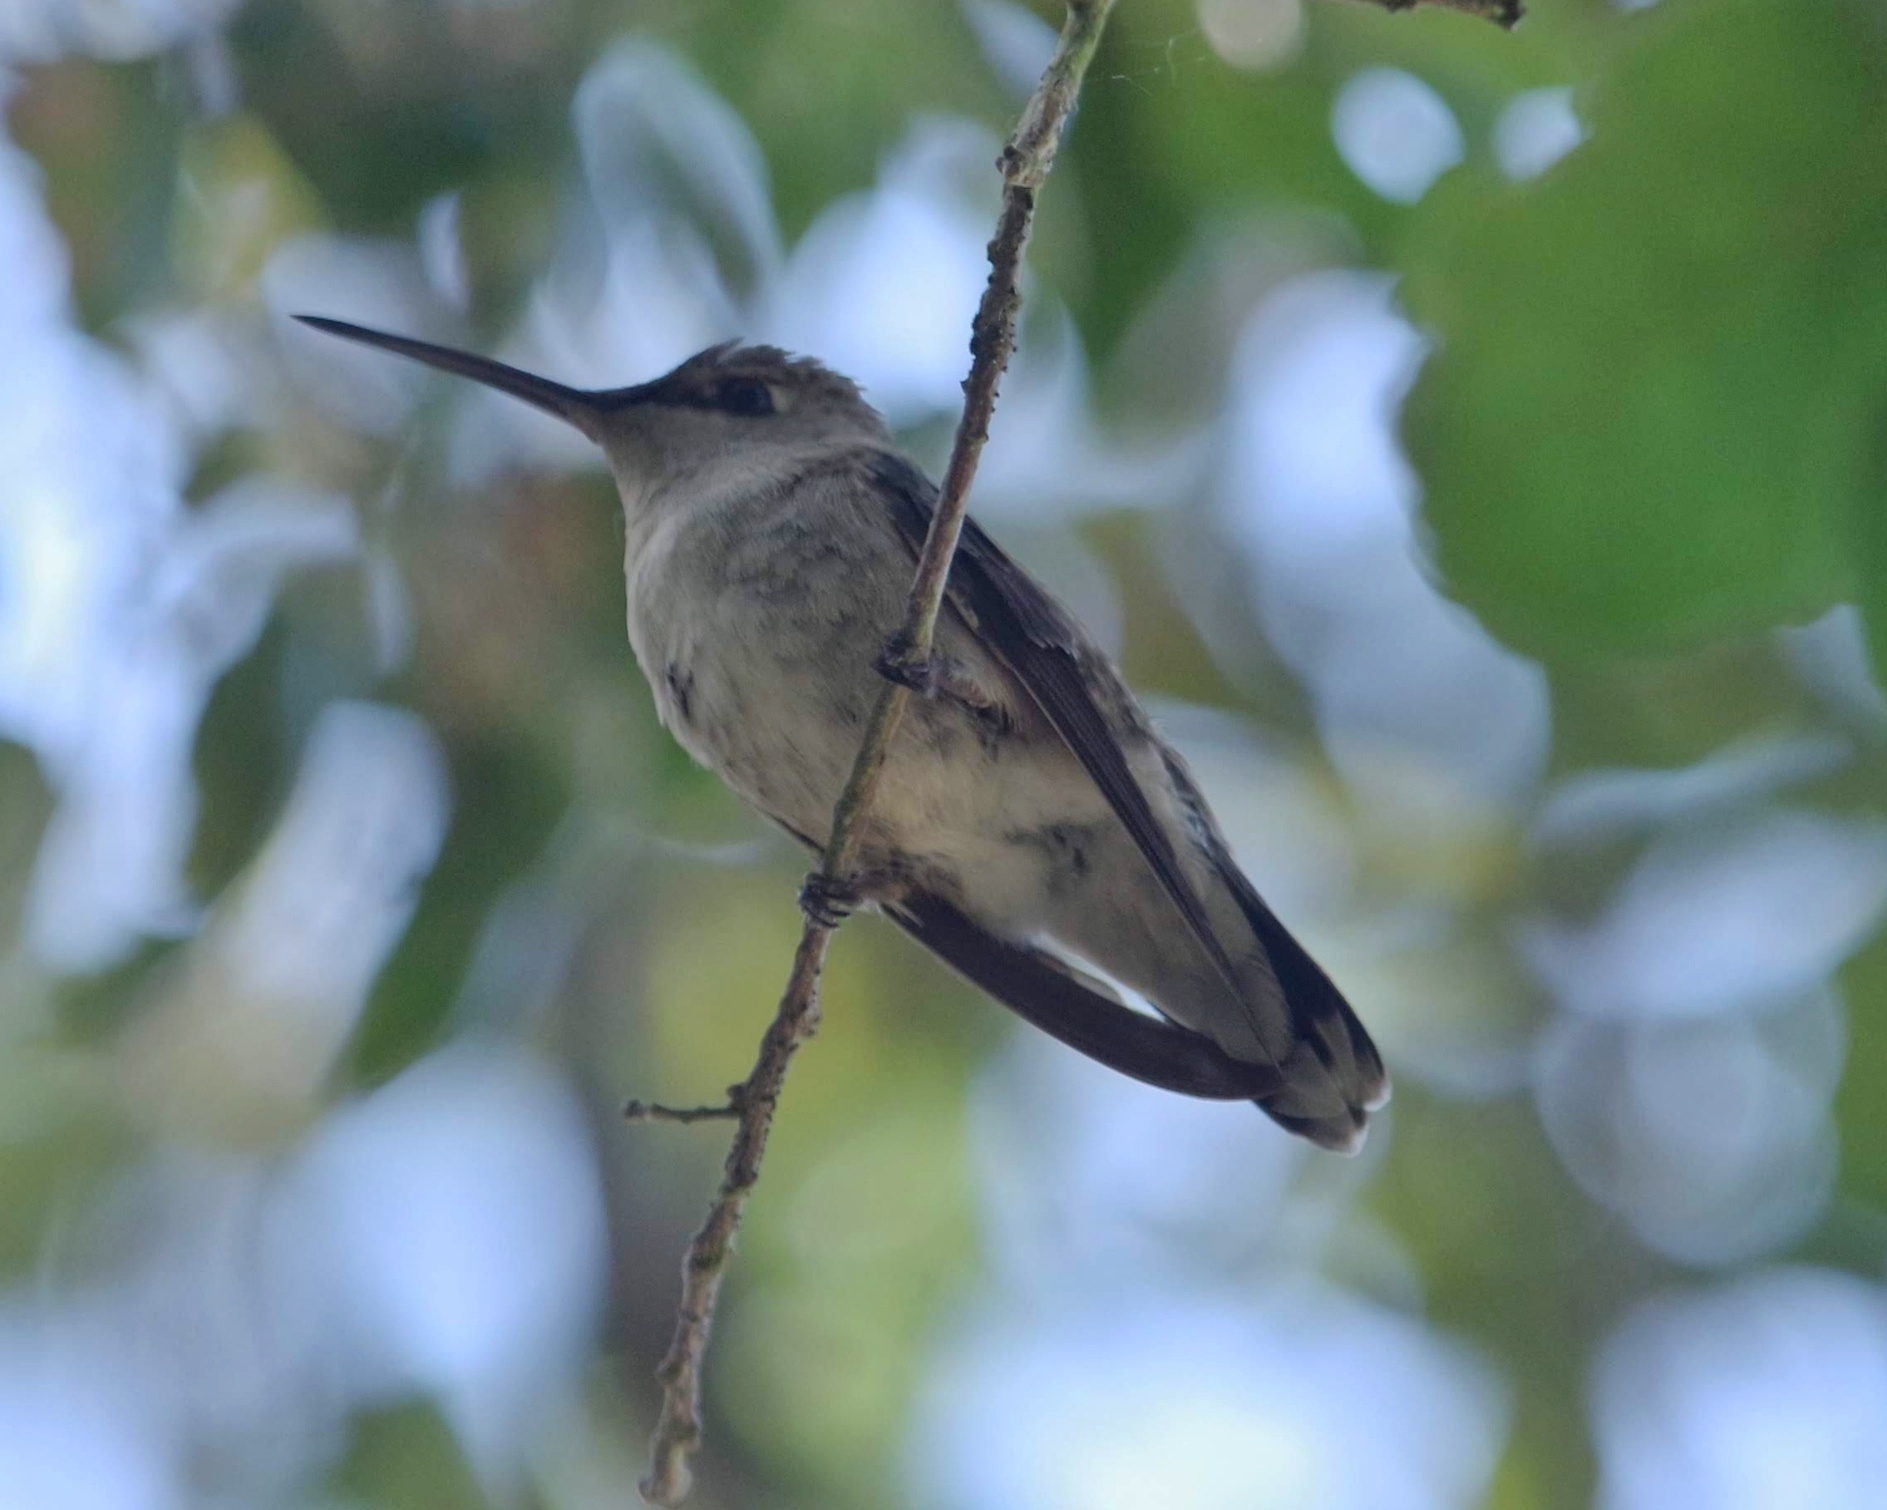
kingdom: Animalia
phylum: Chordata
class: Aves
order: Apodiformes
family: Trochilidae
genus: Archilochus
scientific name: Archilochus alexandri
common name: Black-chinned hummingbird
